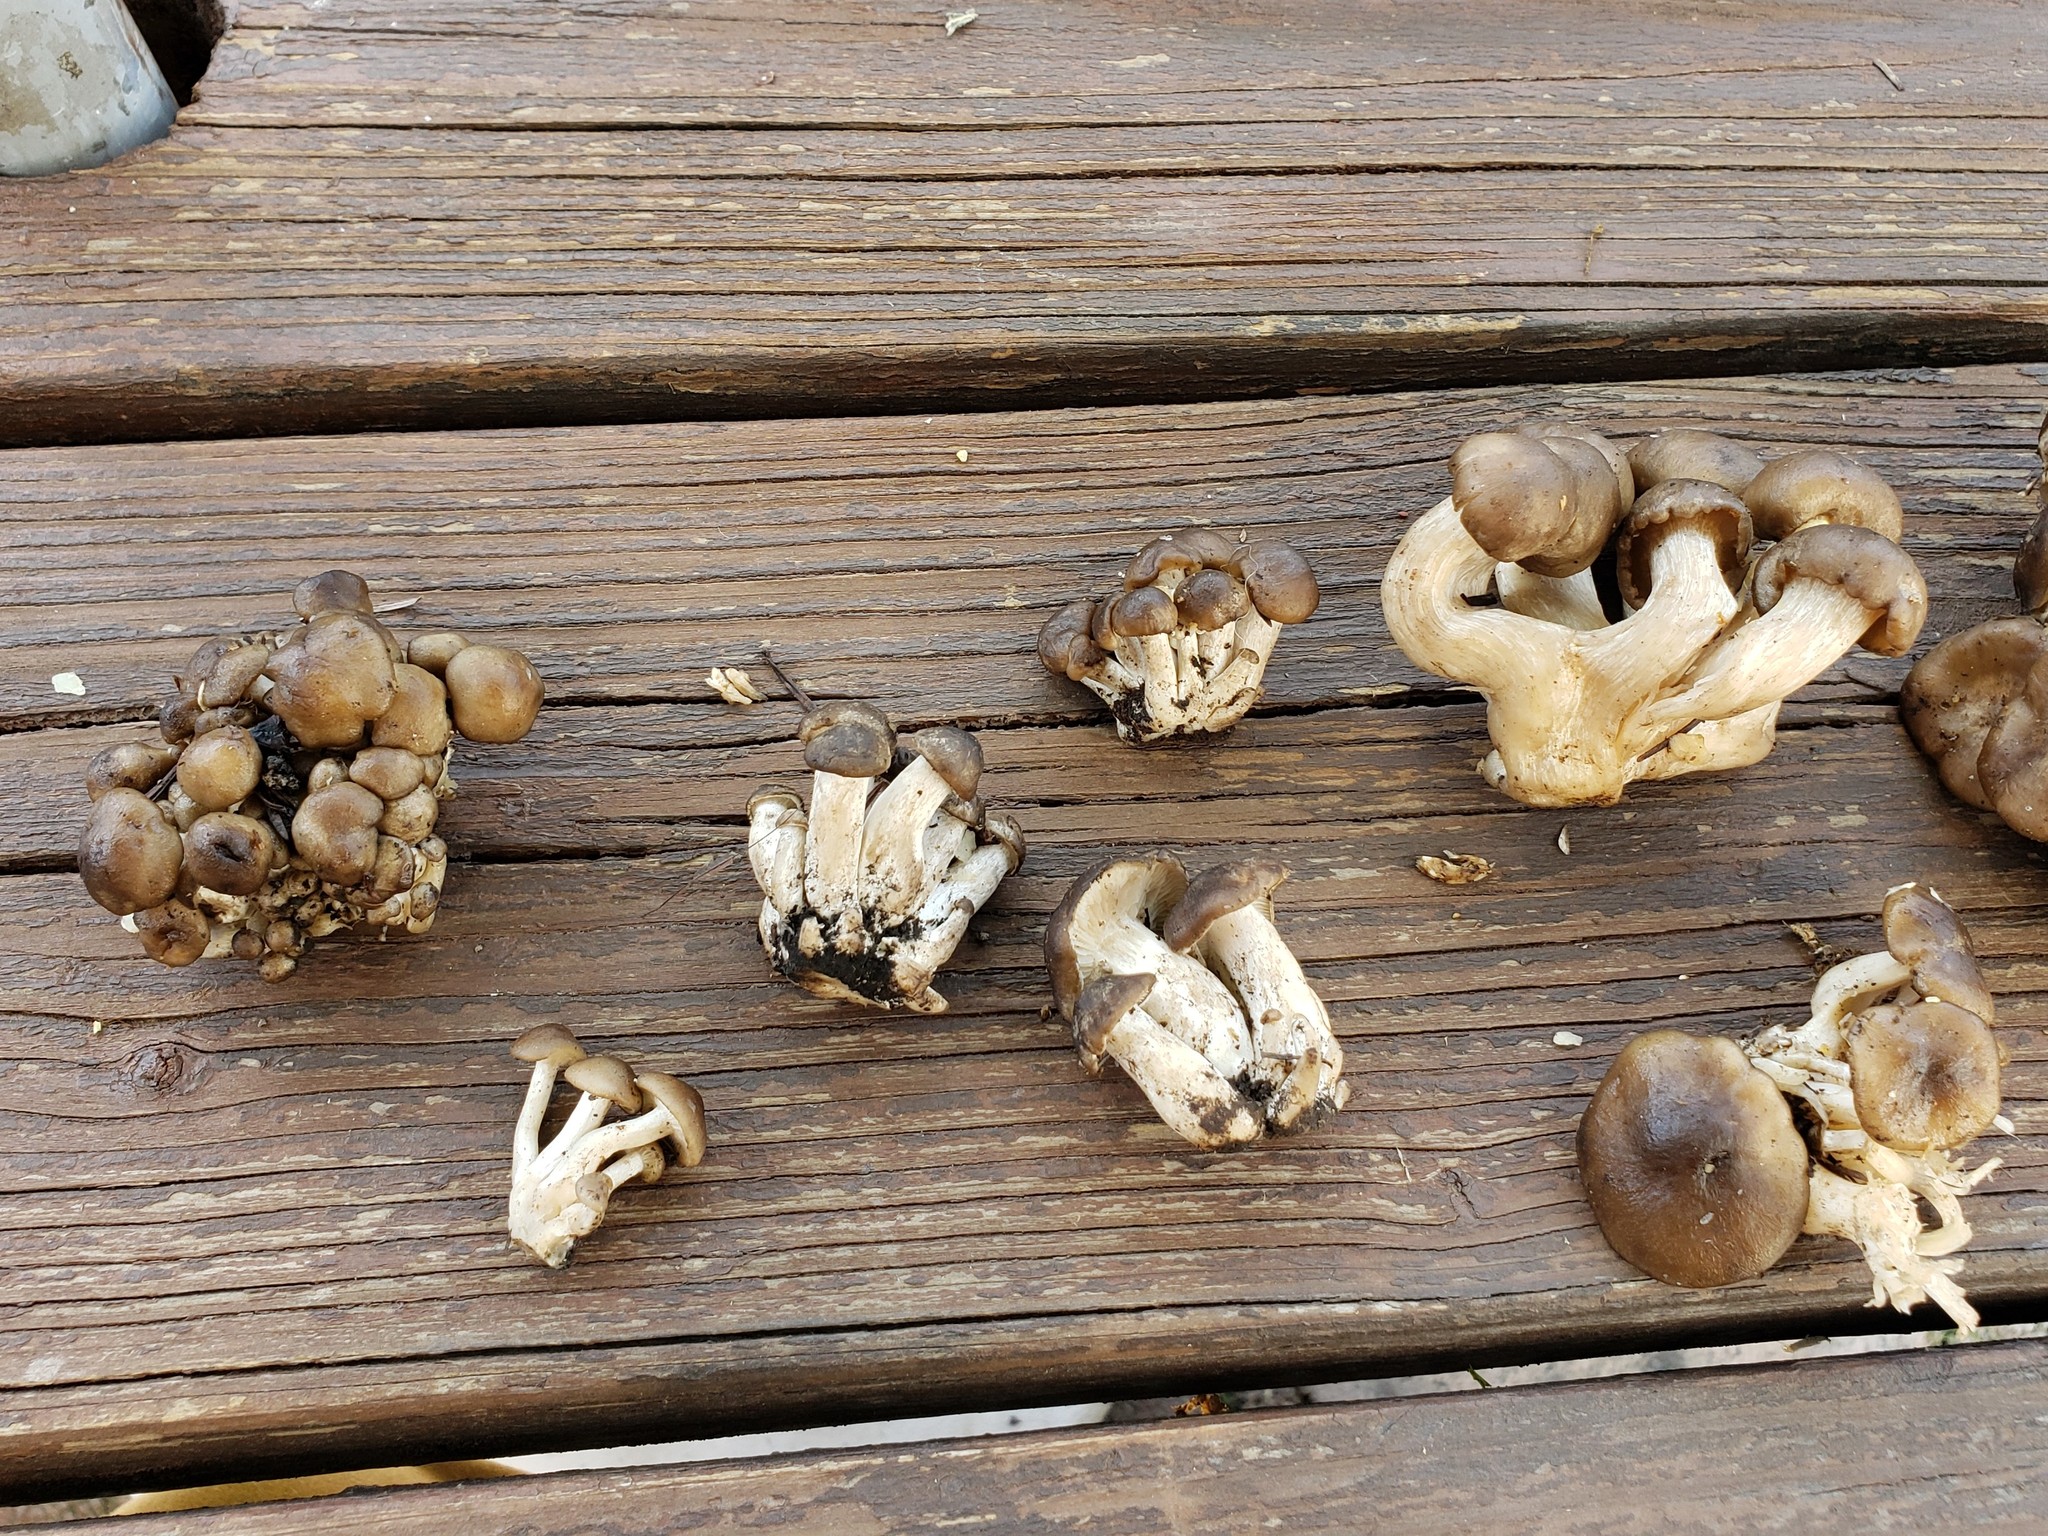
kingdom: Fungi
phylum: Basidiomycota
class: Agaricomycetes
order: Agaricales
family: Lyophyllaceae
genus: Lyophyllum
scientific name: Lyophyllum decastes
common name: Clustered domecap
